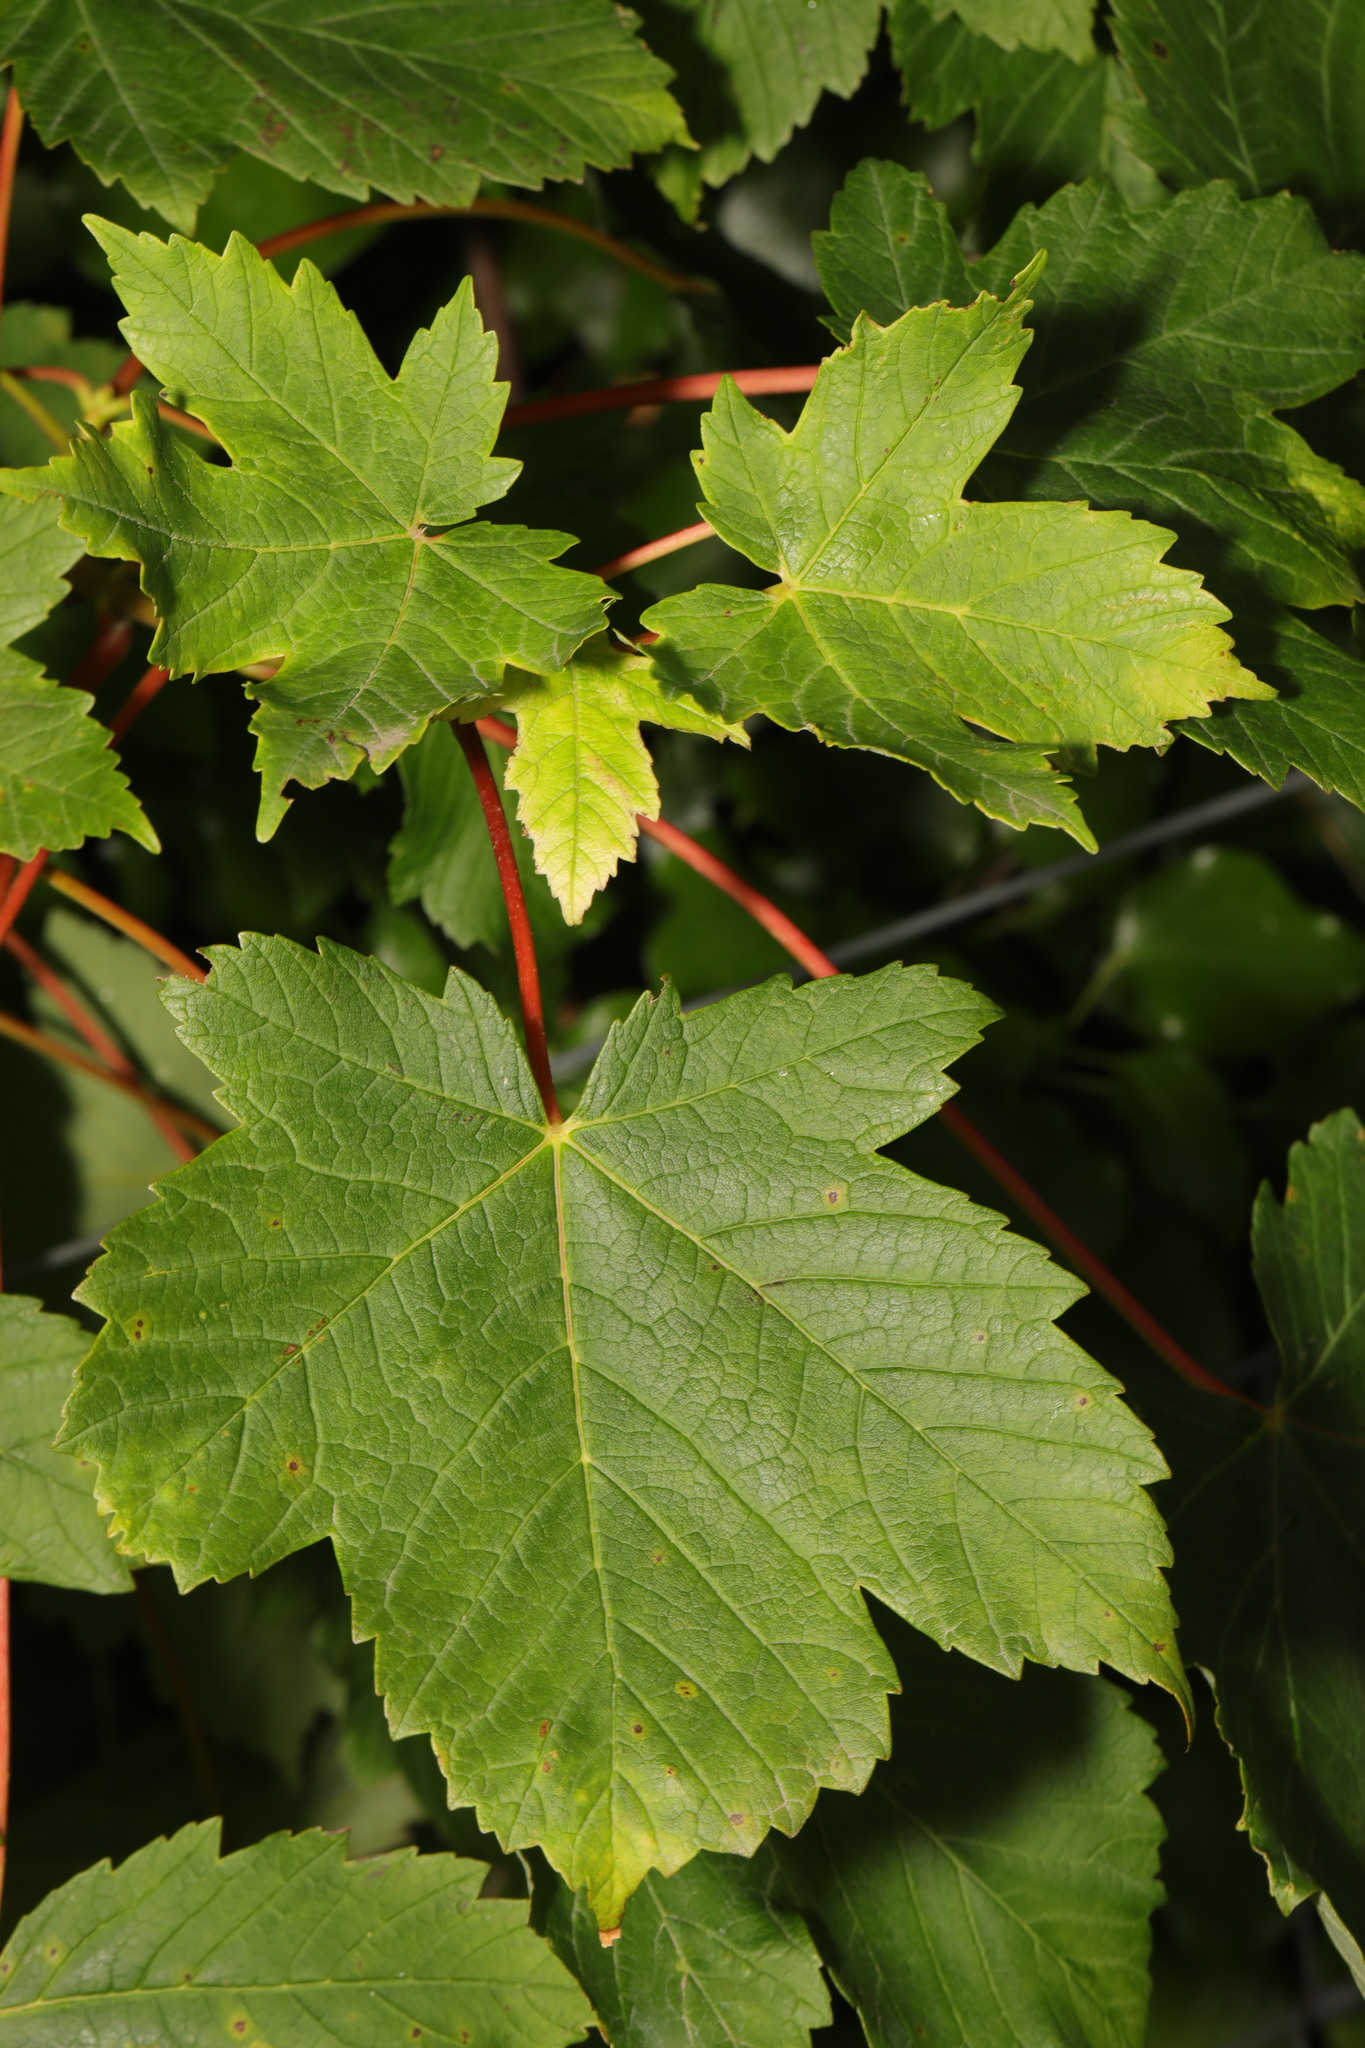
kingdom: Plantae
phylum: Tracheophyta
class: Magnoliopsida
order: Sapindales
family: Sapindaceae
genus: Acer
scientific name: Acer pseudoplatanus
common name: Sycamore
